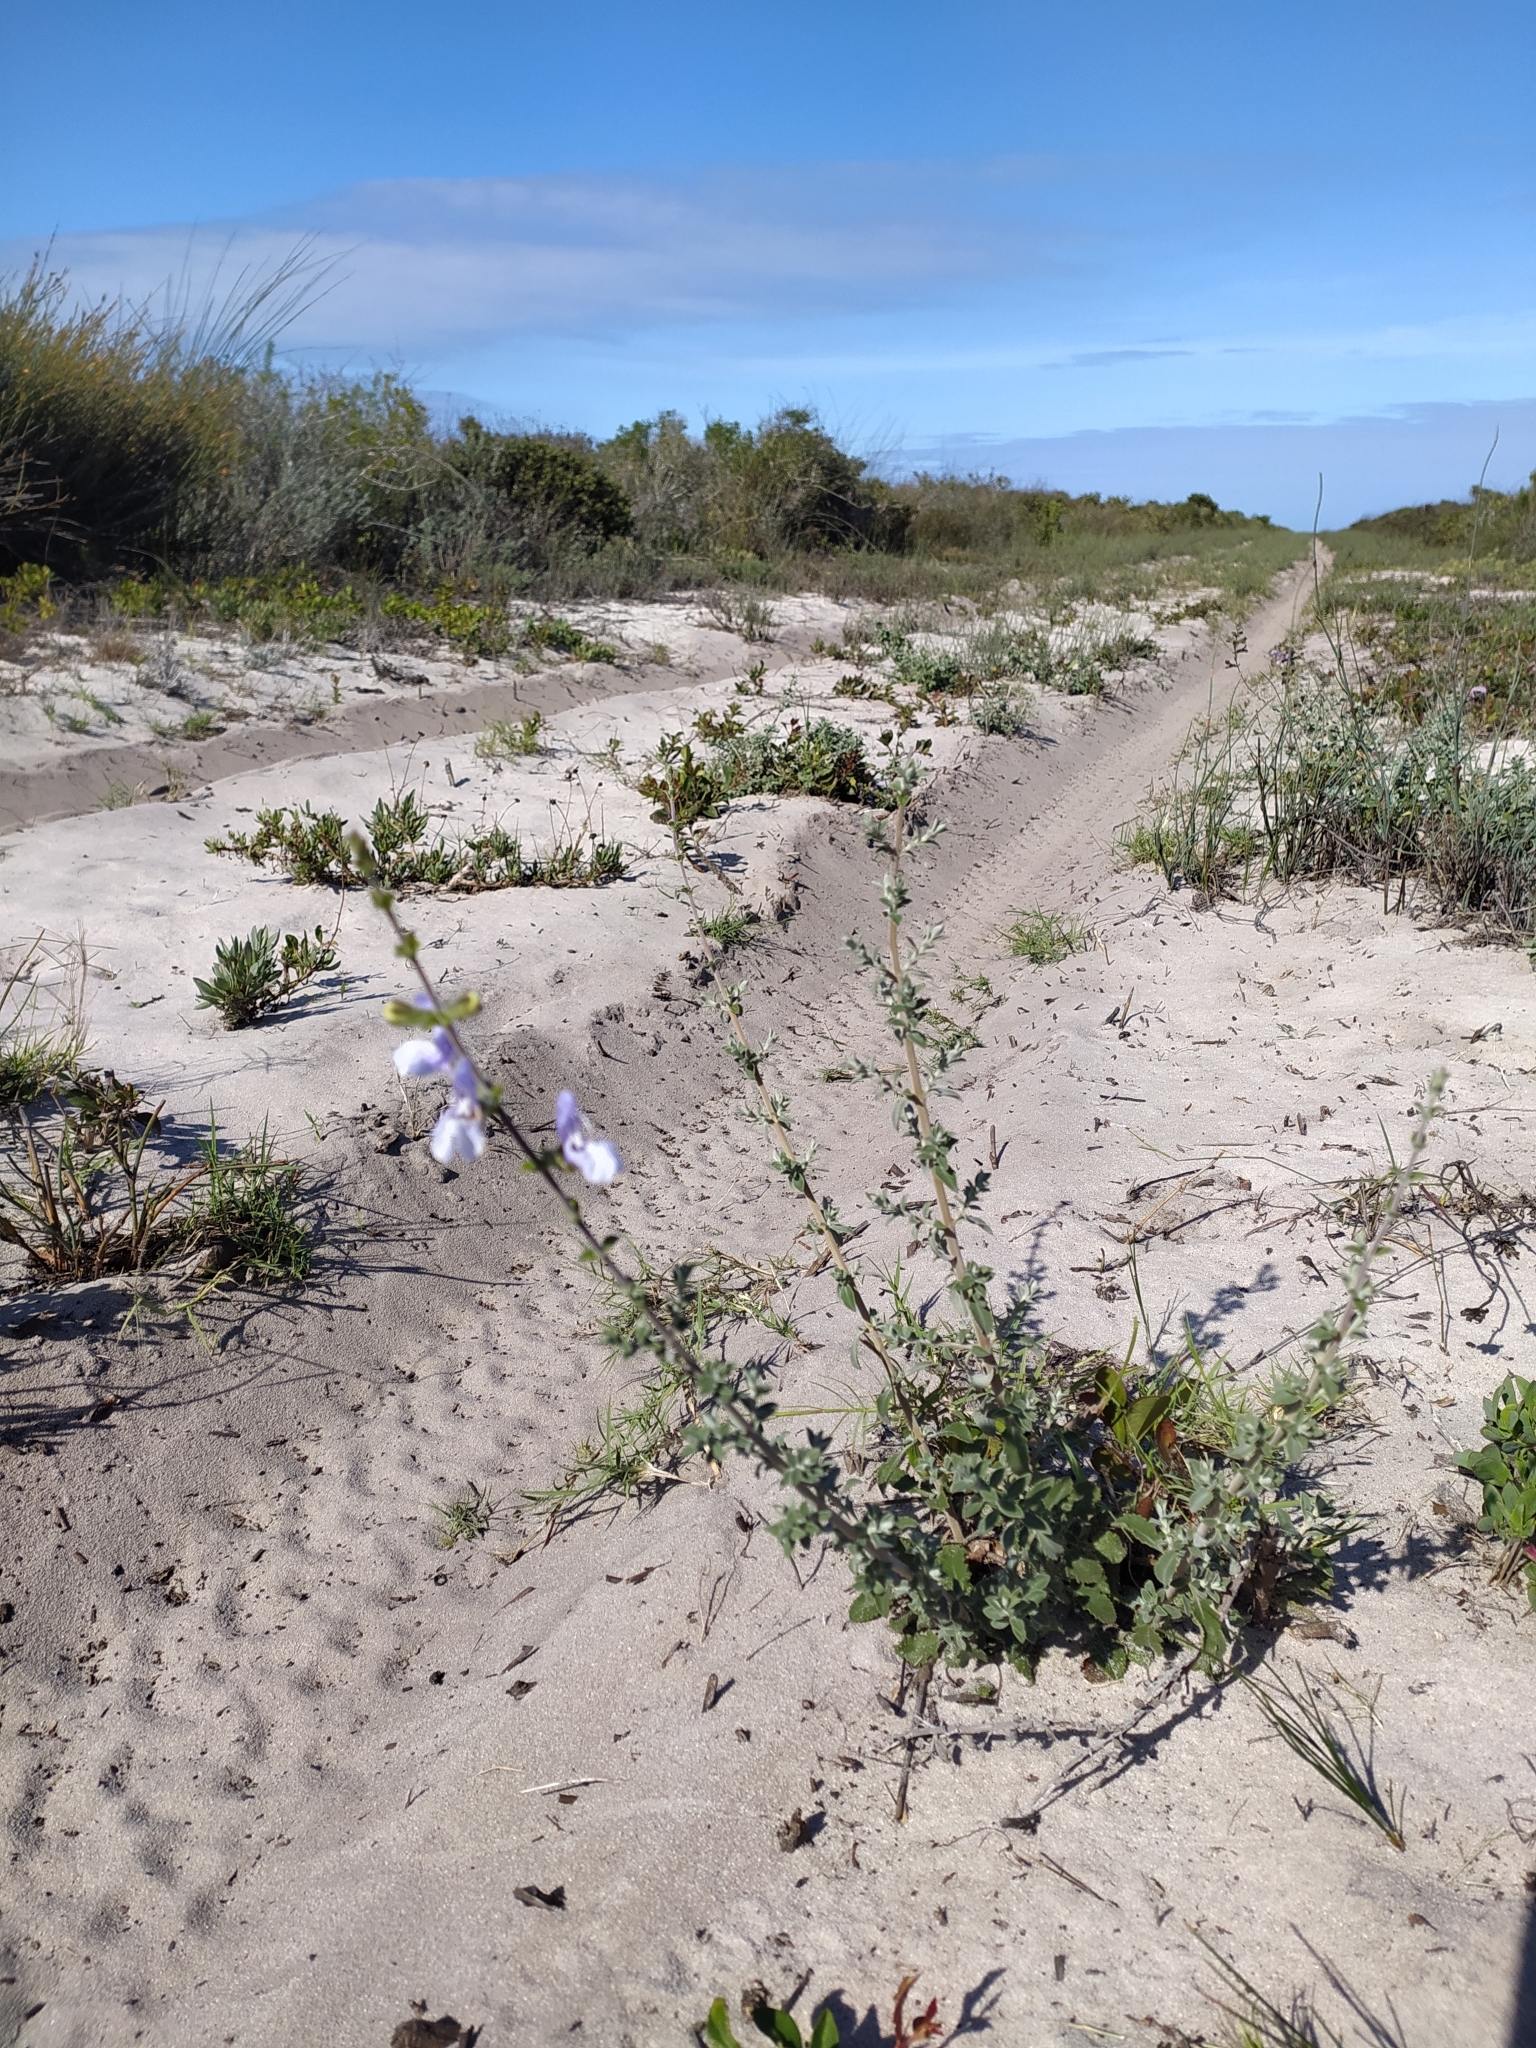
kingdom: Plantae
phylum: Tracheophyta
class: Magnoliopsida
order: Lamiales
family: Lamiaceae
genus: Salvia
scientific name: Salvia africana
